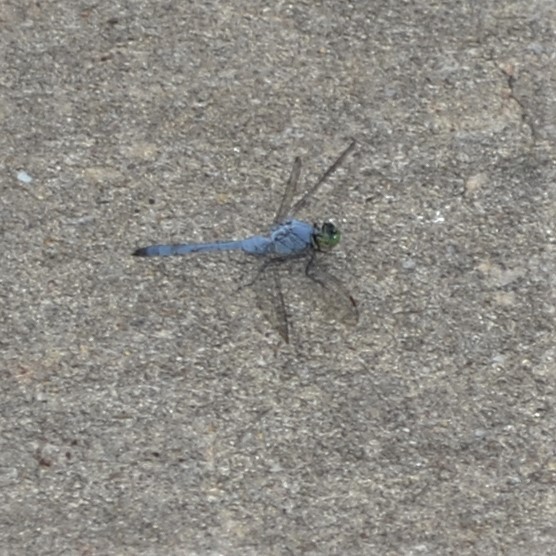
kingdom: Animalia
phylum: Arthropoda
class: Insecta
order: Odonata
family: Libellulidae
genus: Erythemis
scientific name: Erythemis simplicicollis
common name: Eastern pondhawk
